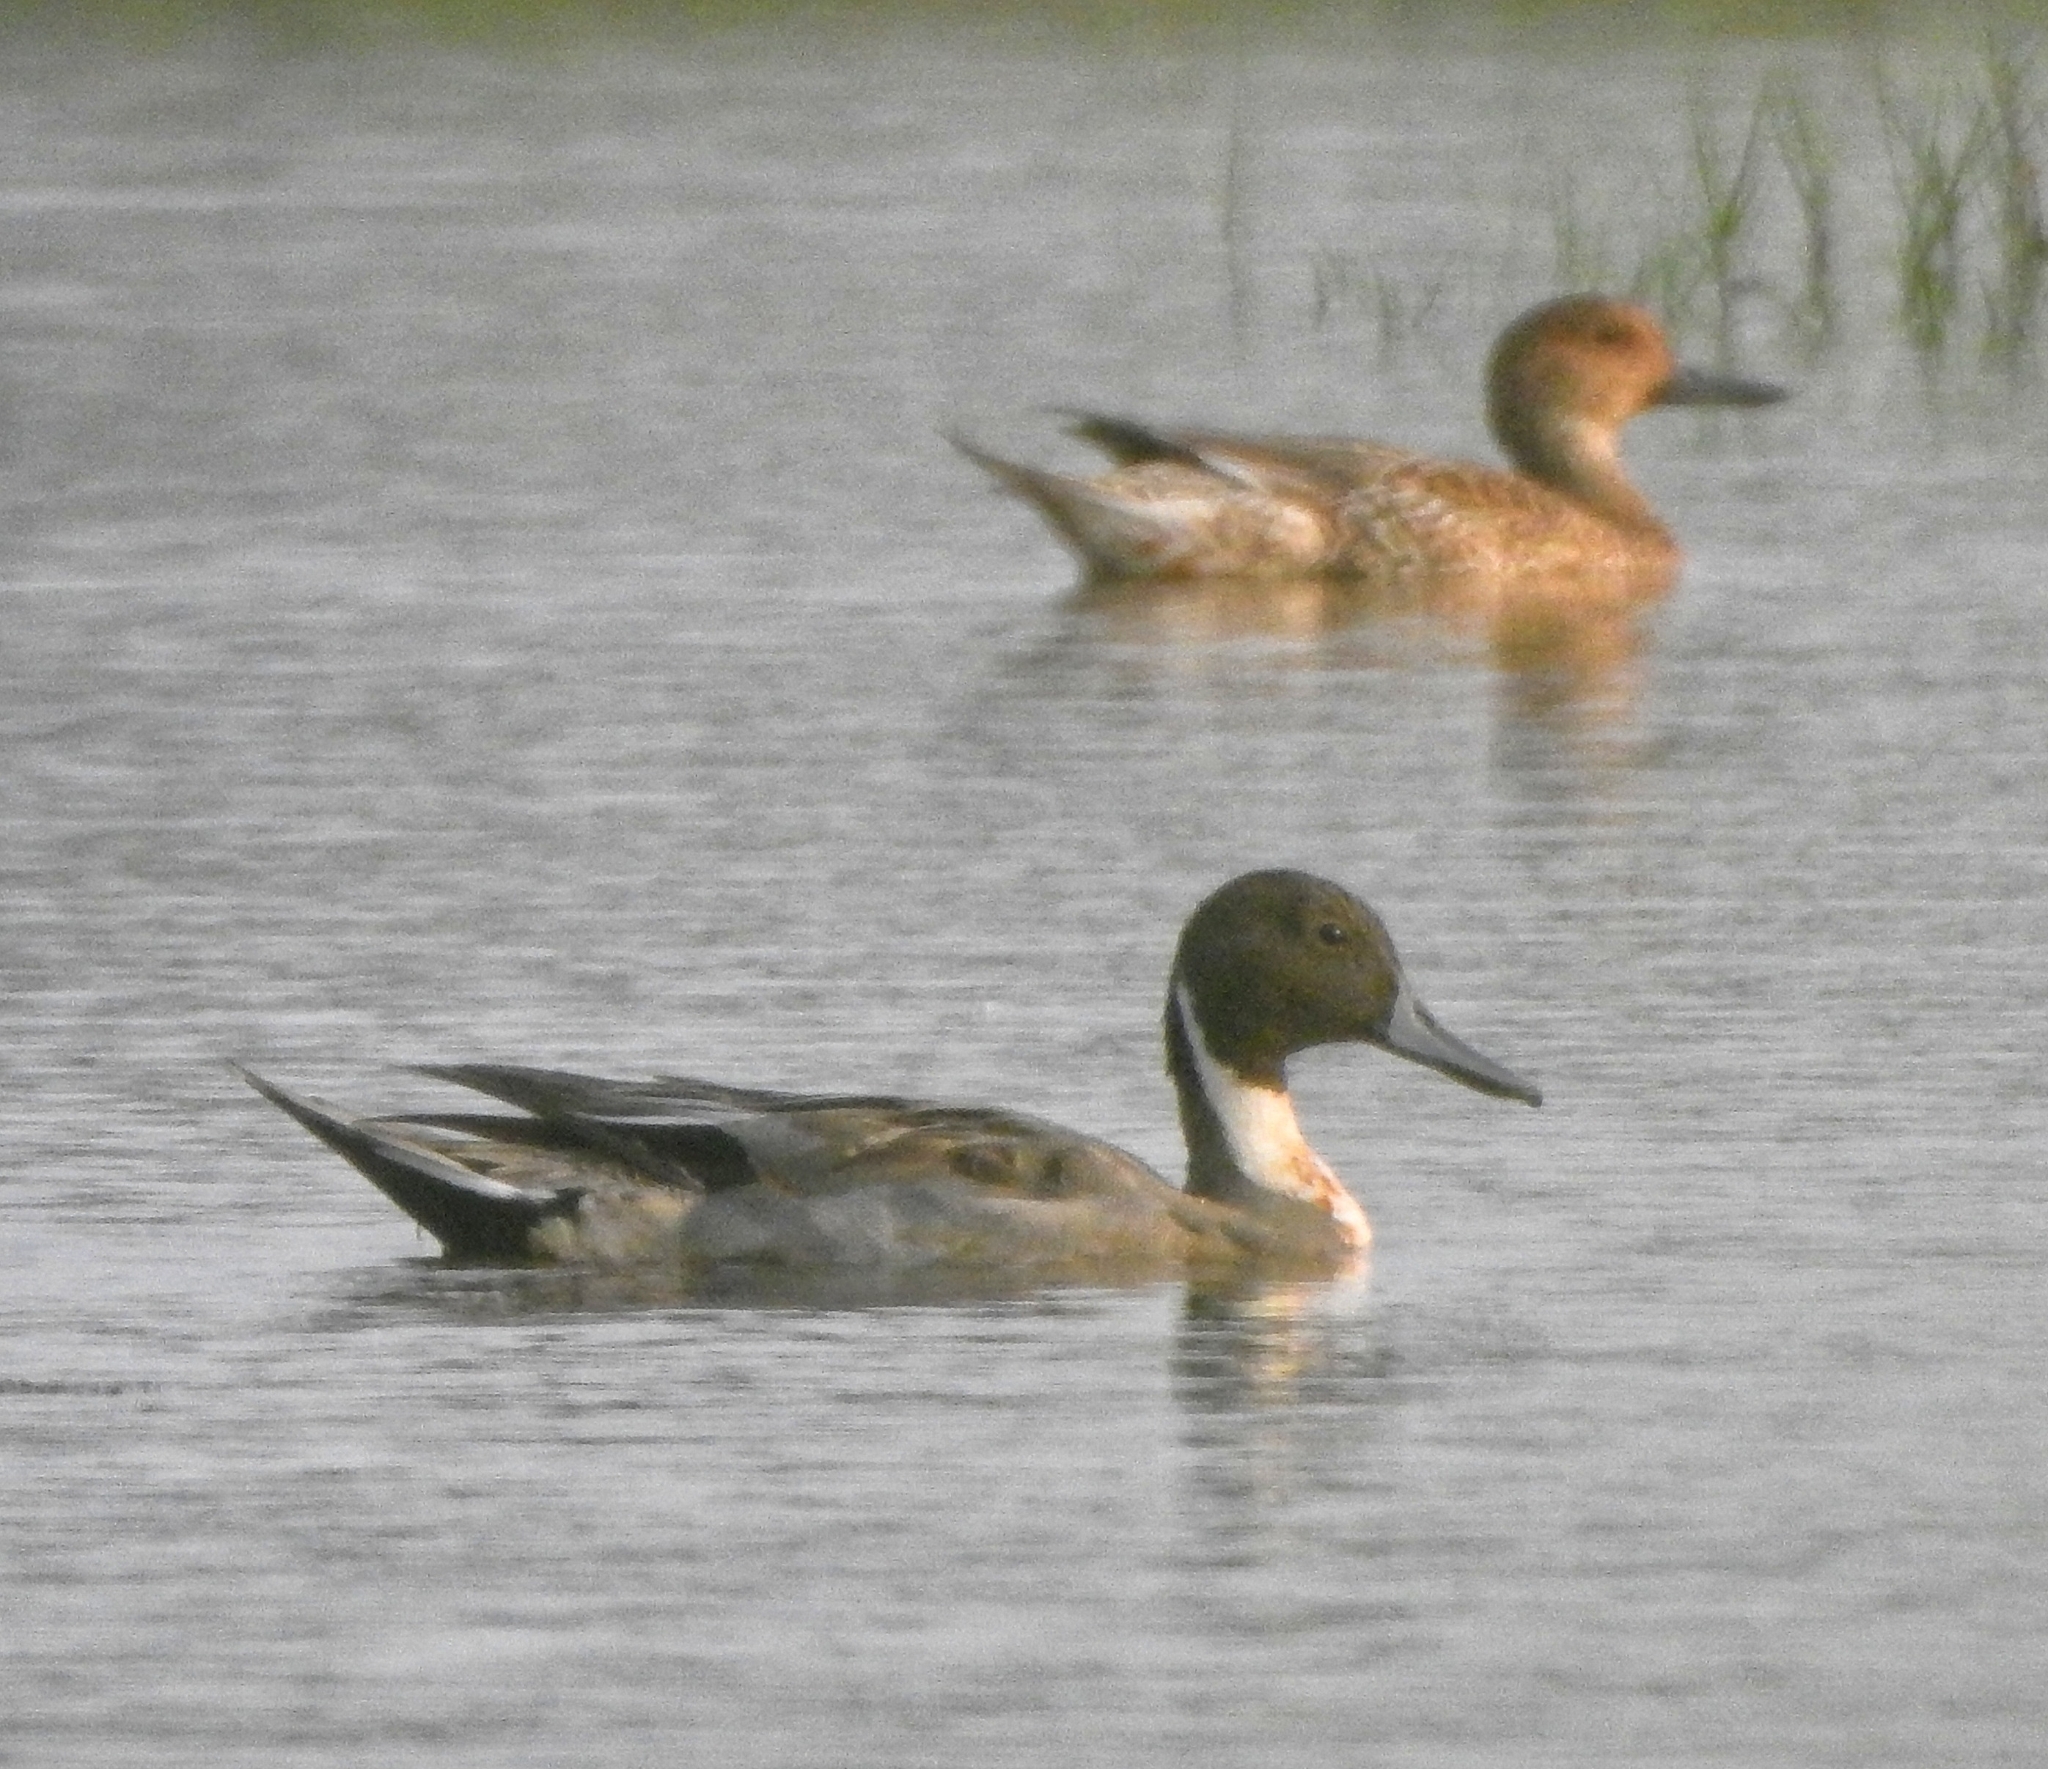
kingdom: Animalia
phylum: Chordata
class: Aves
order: Anseriformes
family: Anatidae
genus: Anas
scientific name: Anas acuta
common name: Northern pintail
